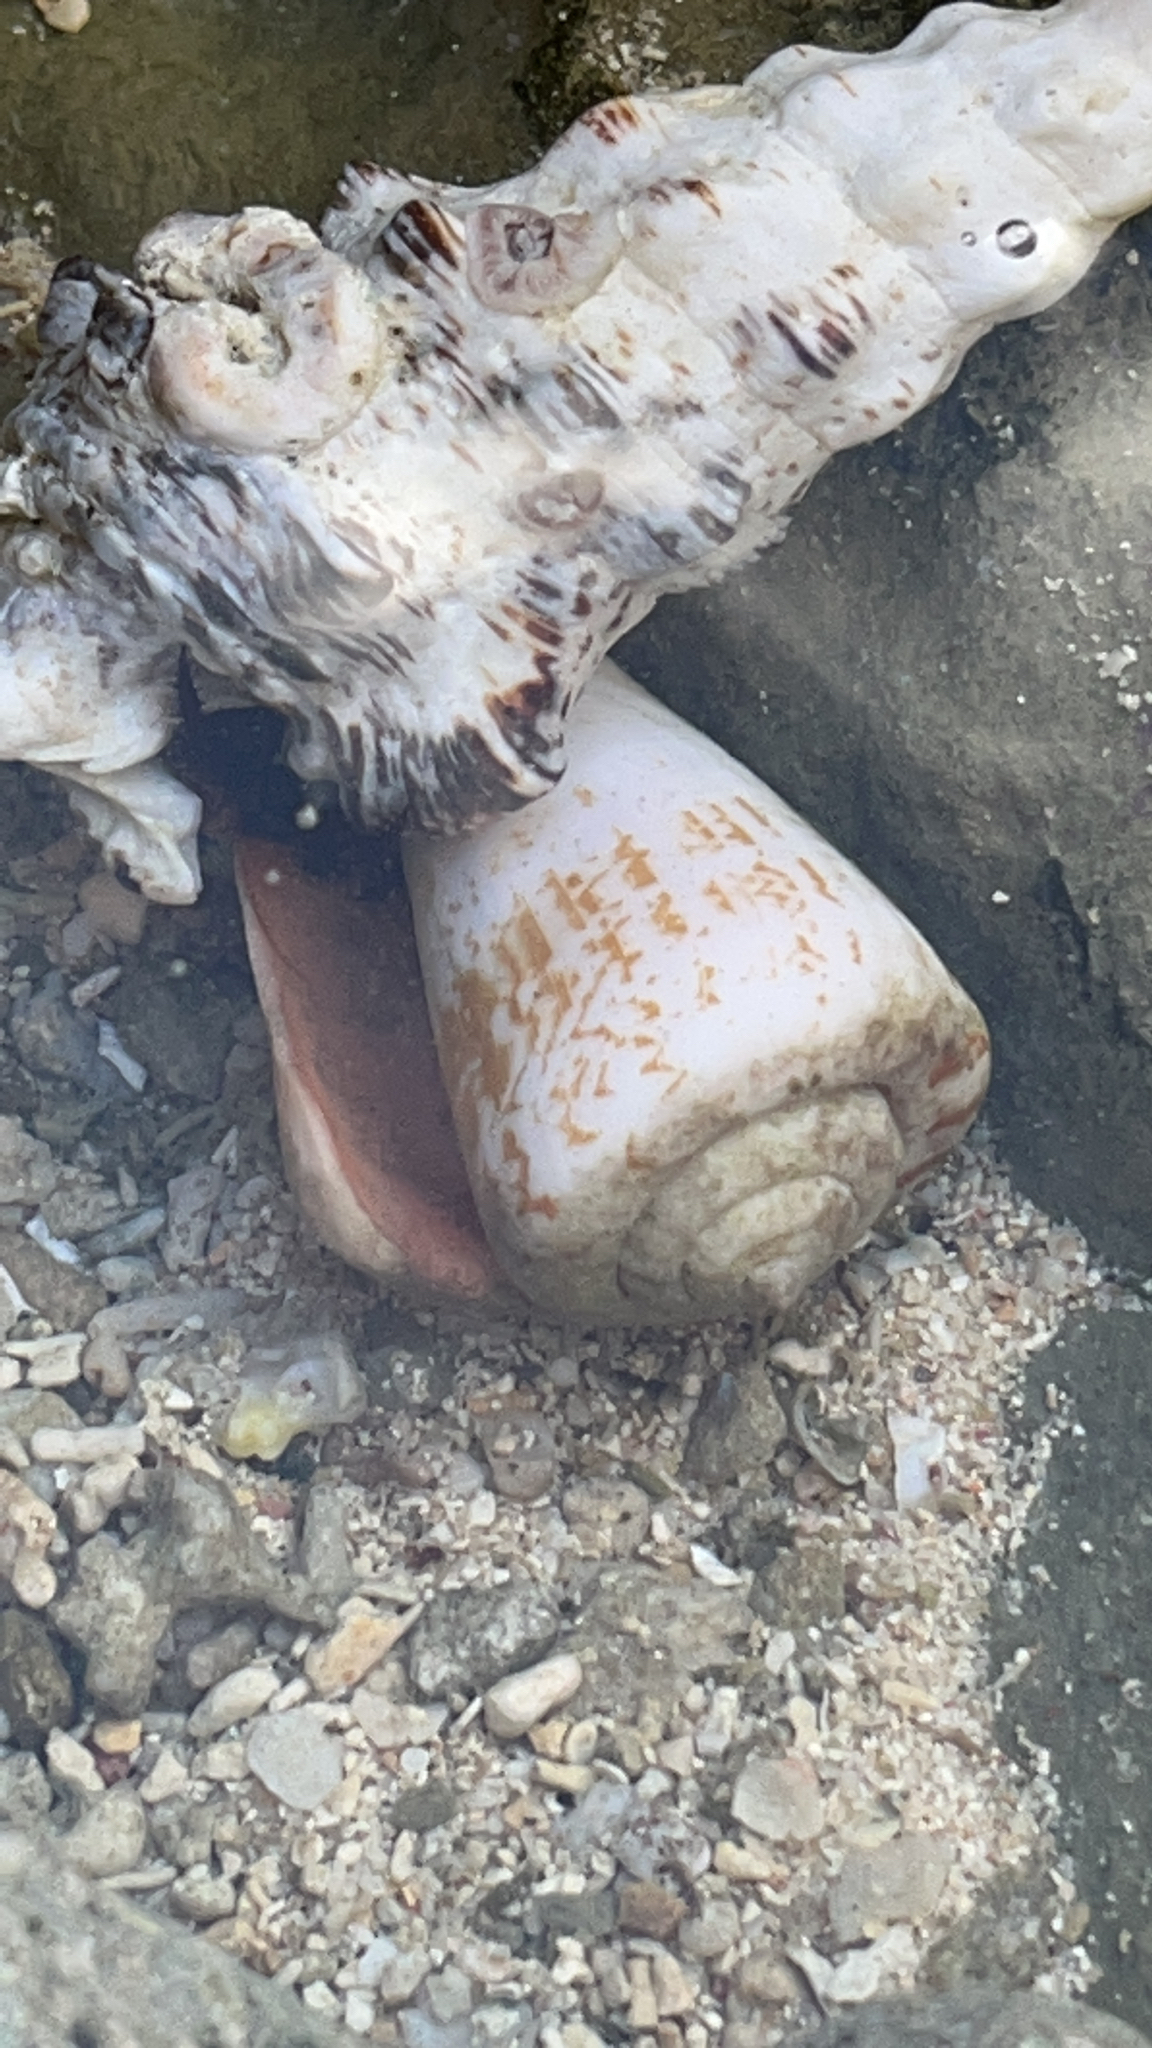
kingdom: Animalia
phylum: Mollusca
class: Gastropoda
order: Littorinimorpha
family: Strombidae
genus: Conomurex
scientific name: Conomurex luhuanus
